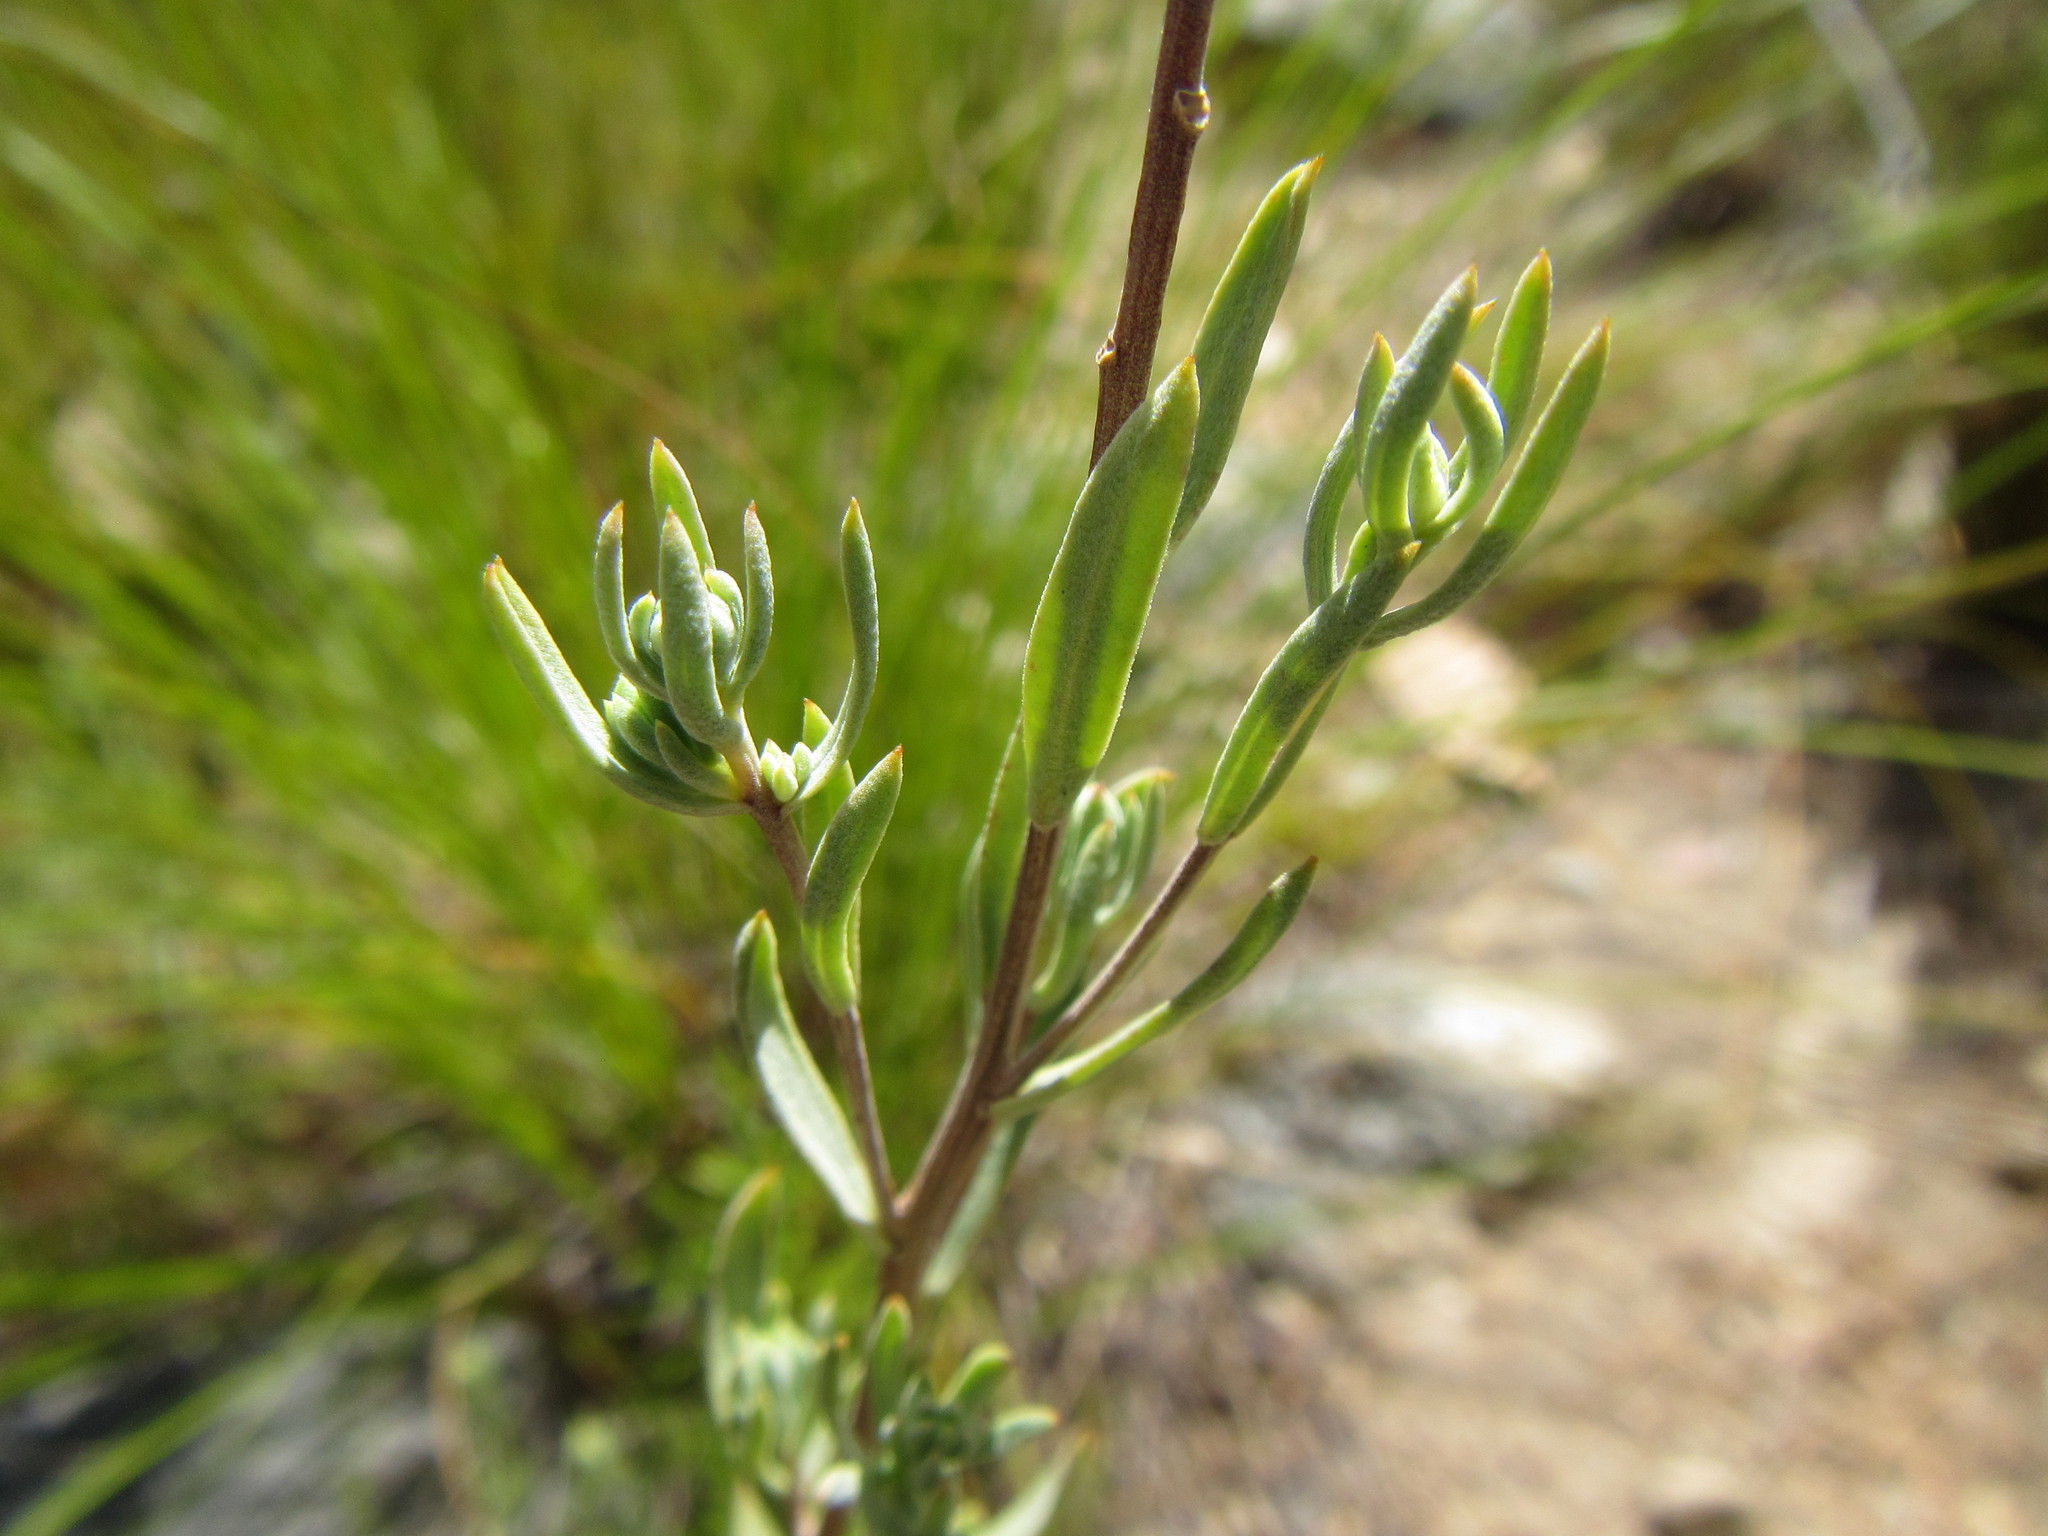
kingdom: Plantae
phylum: Tracheophyta
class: Magnoliopsida
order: Asterales
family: Asteraceae
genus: Pteronia
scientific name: Pteronia centauroides
